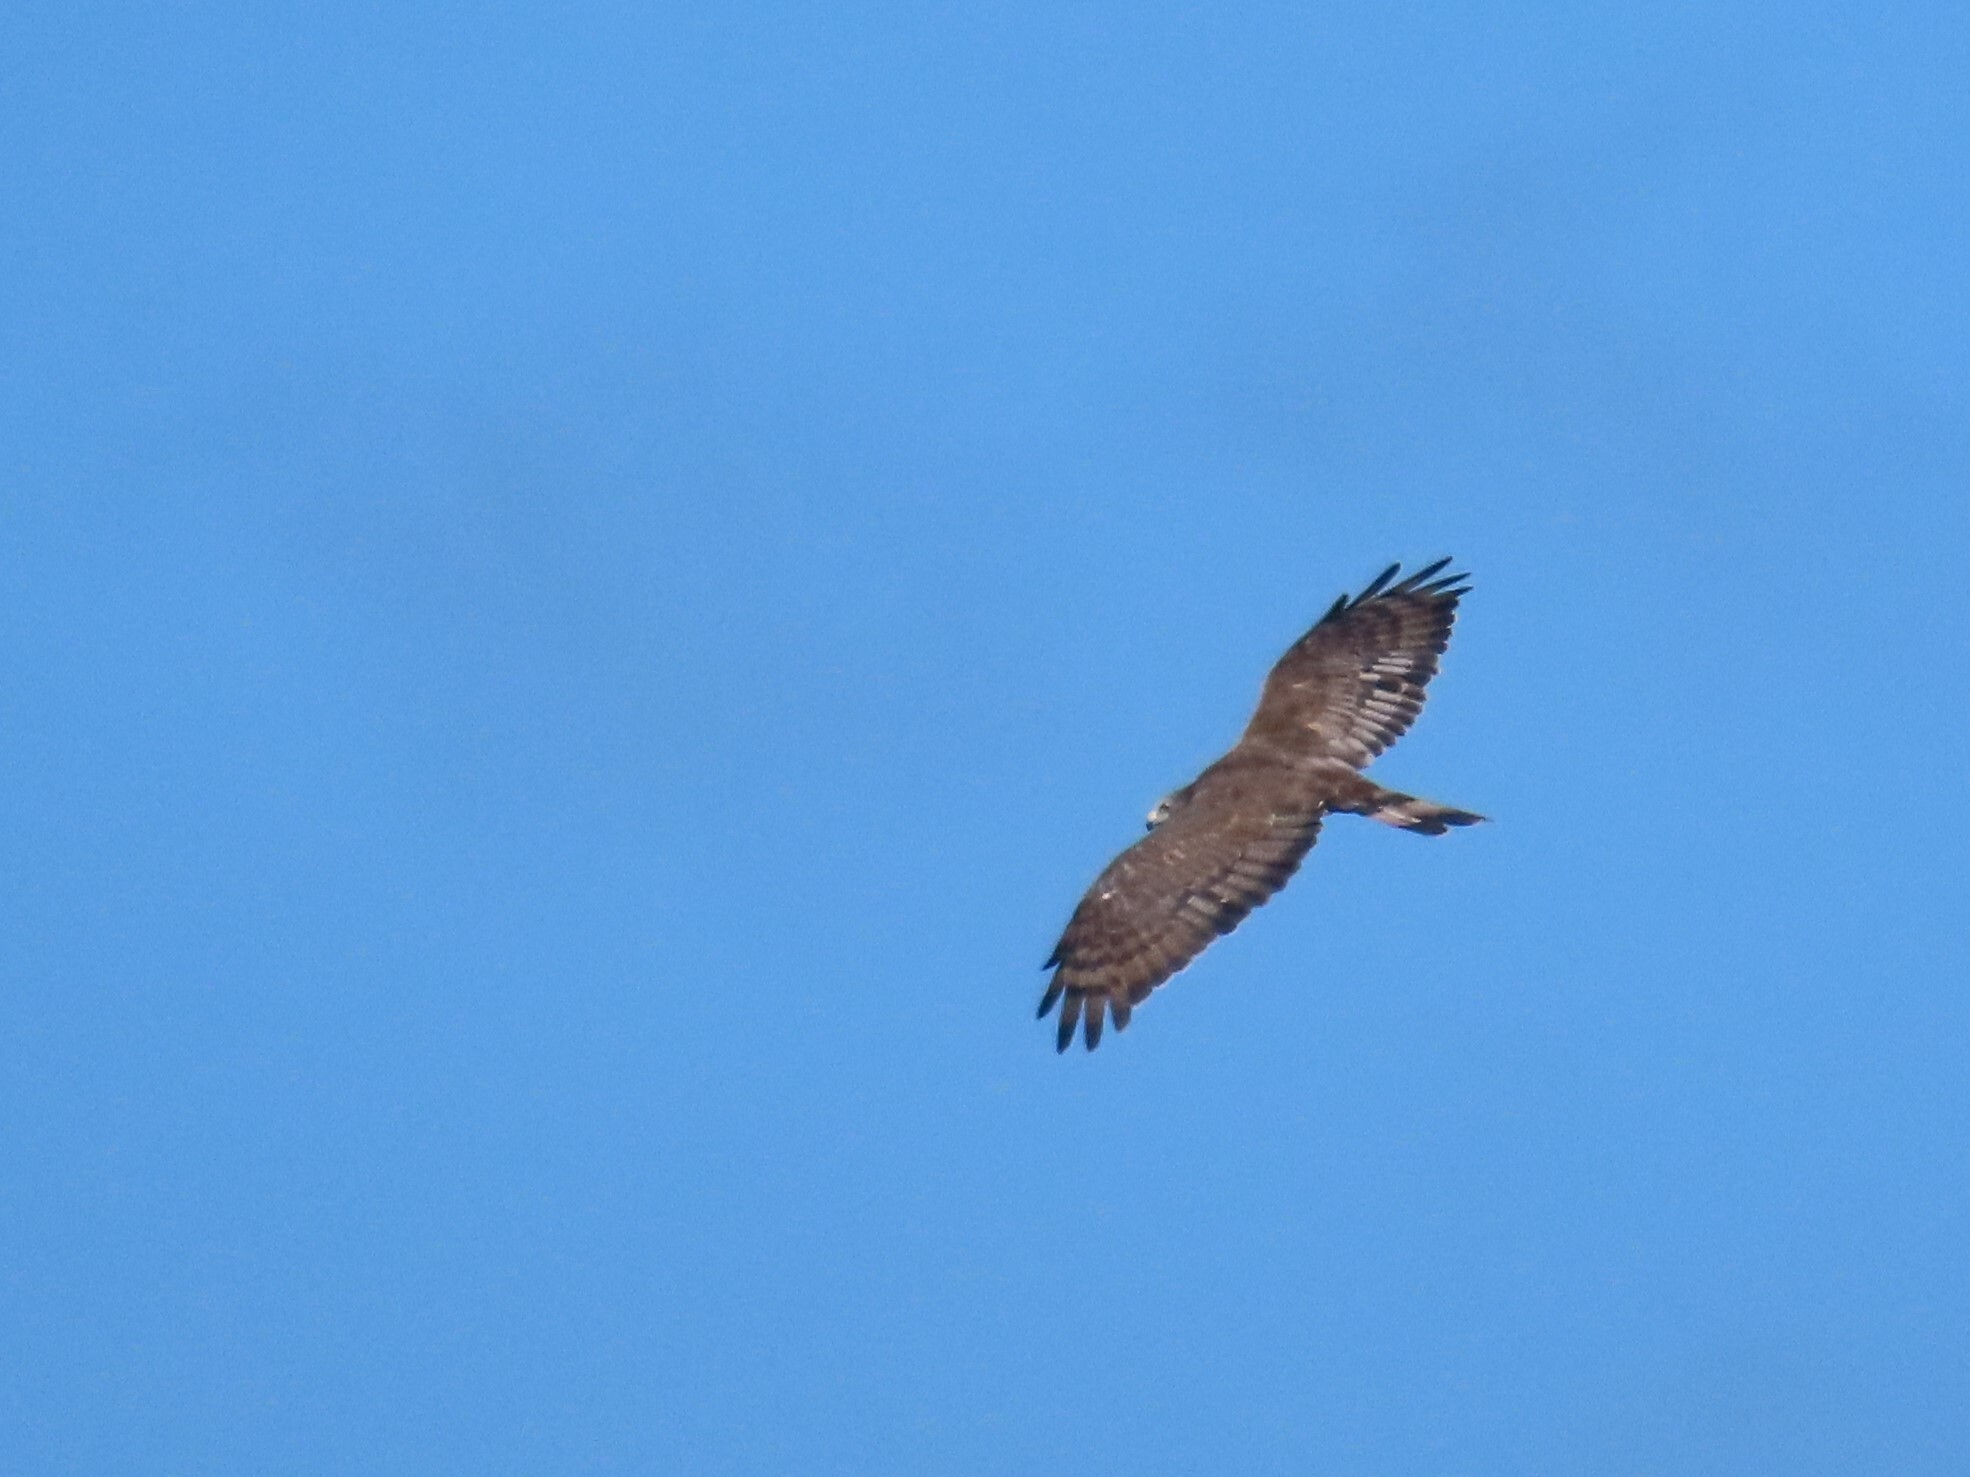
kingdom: Animalia
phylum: Chordata
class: Aves
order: Accipitriformes
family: Accipitridae
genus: Pernis
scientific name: Pernis ptilorhynchus
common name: Crested honey buzzard
